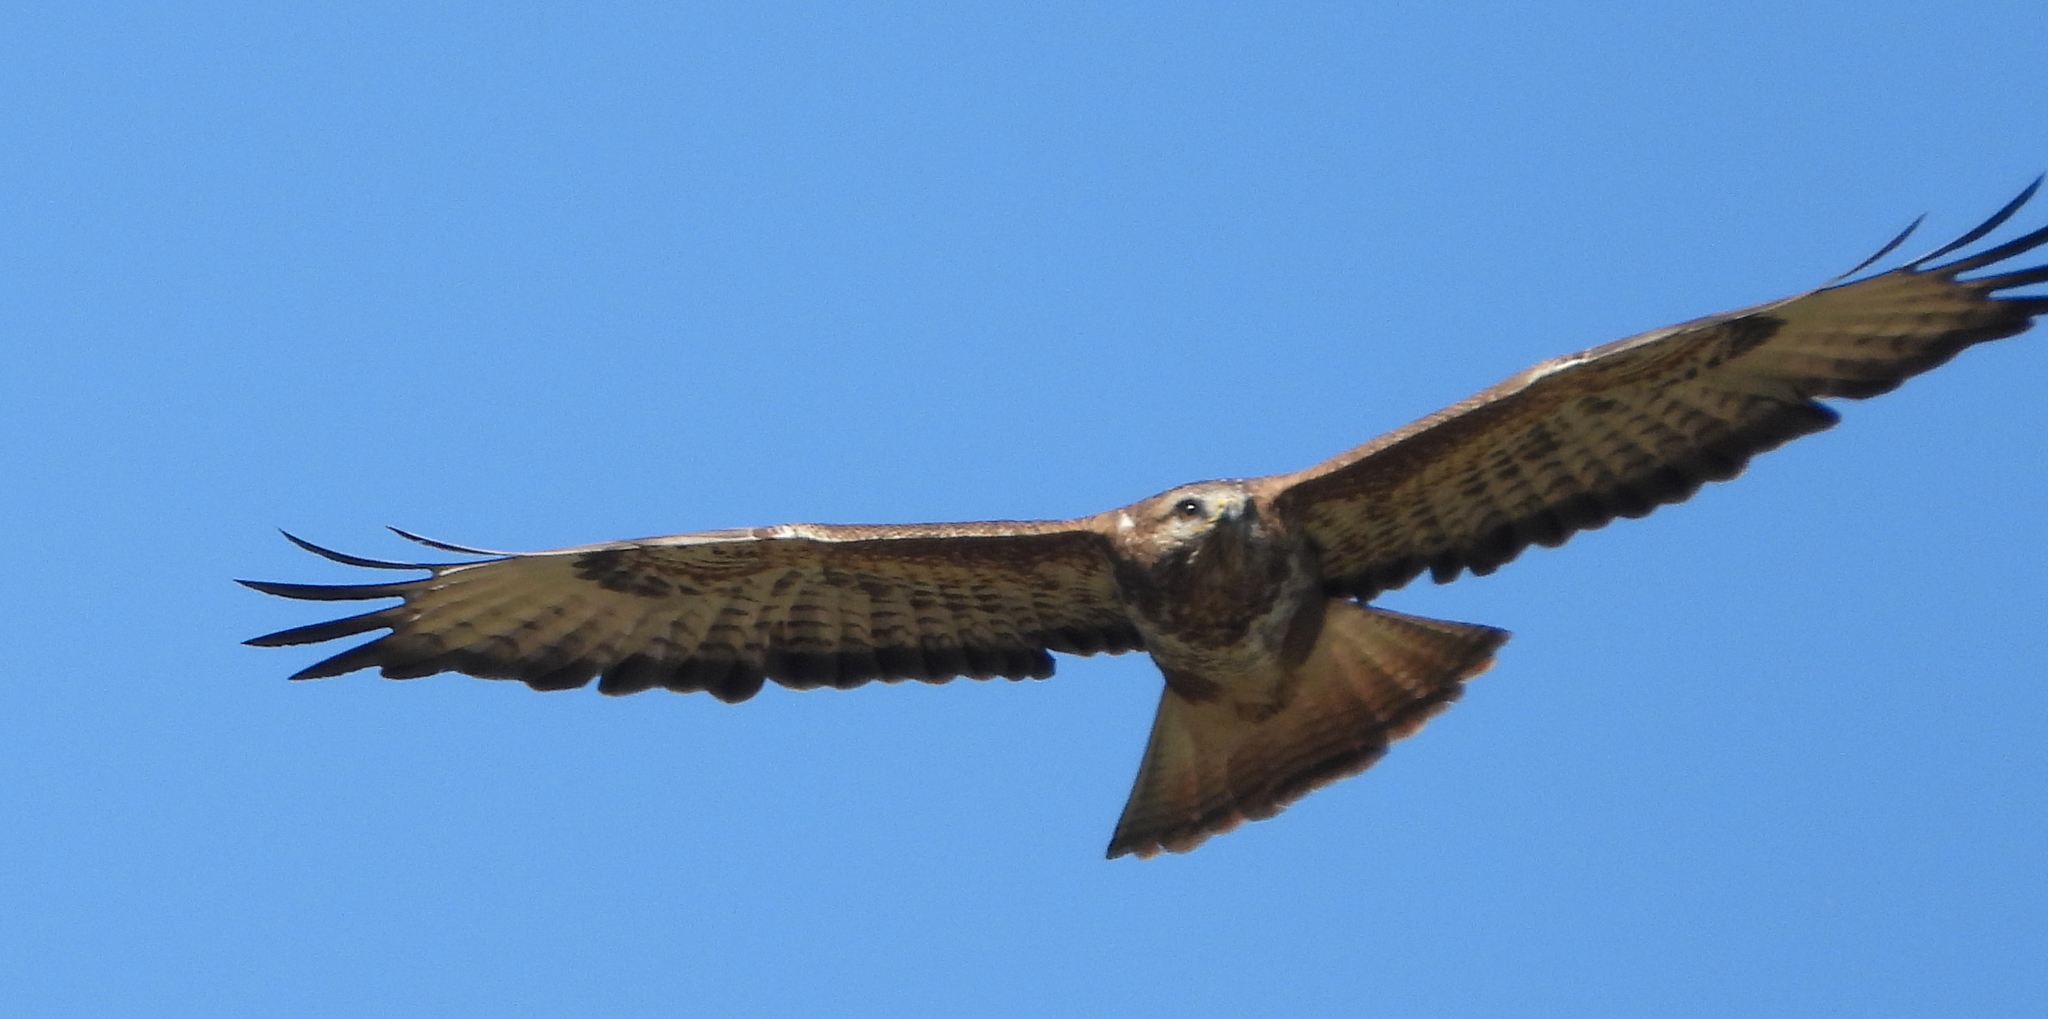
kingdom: Animalia
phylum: Chordata
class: Aves
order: Accipitriformes
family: Accipitridae
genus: Buteo
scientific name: Buteo buteo
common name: Common buzzard
